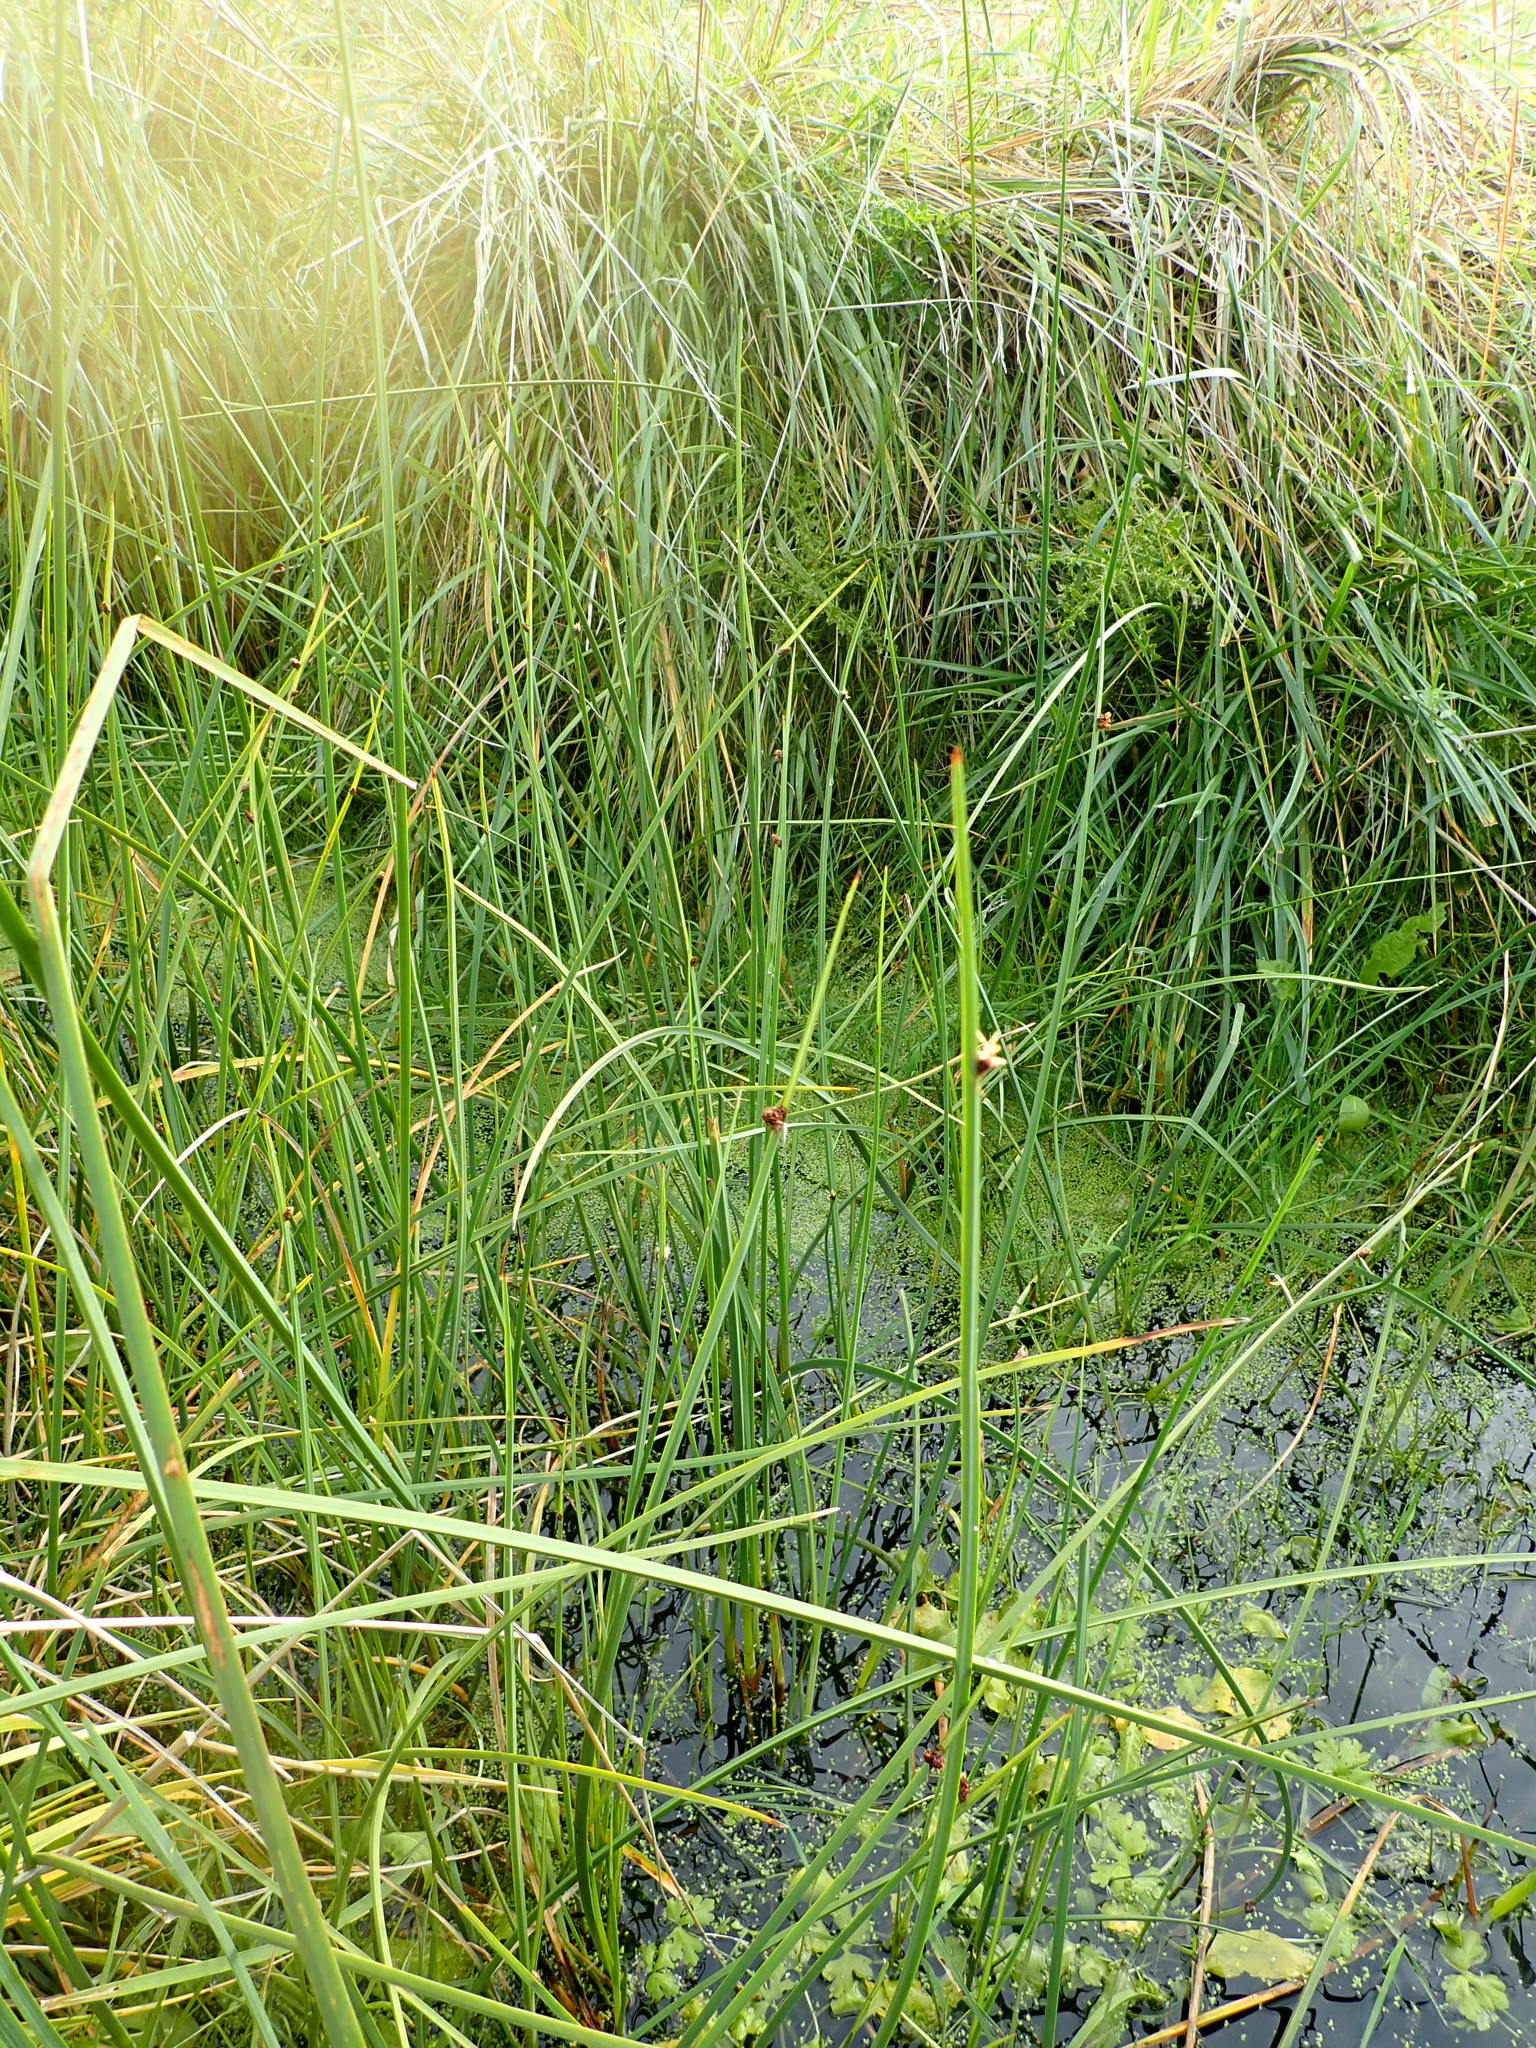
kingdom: Plantae
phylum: Tracheophyta
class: Liliopsida
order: Poales
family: Cyperaceae
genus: Schoenoplectus
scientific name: Schoenoplectus pungens
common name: Sharp club-rush
